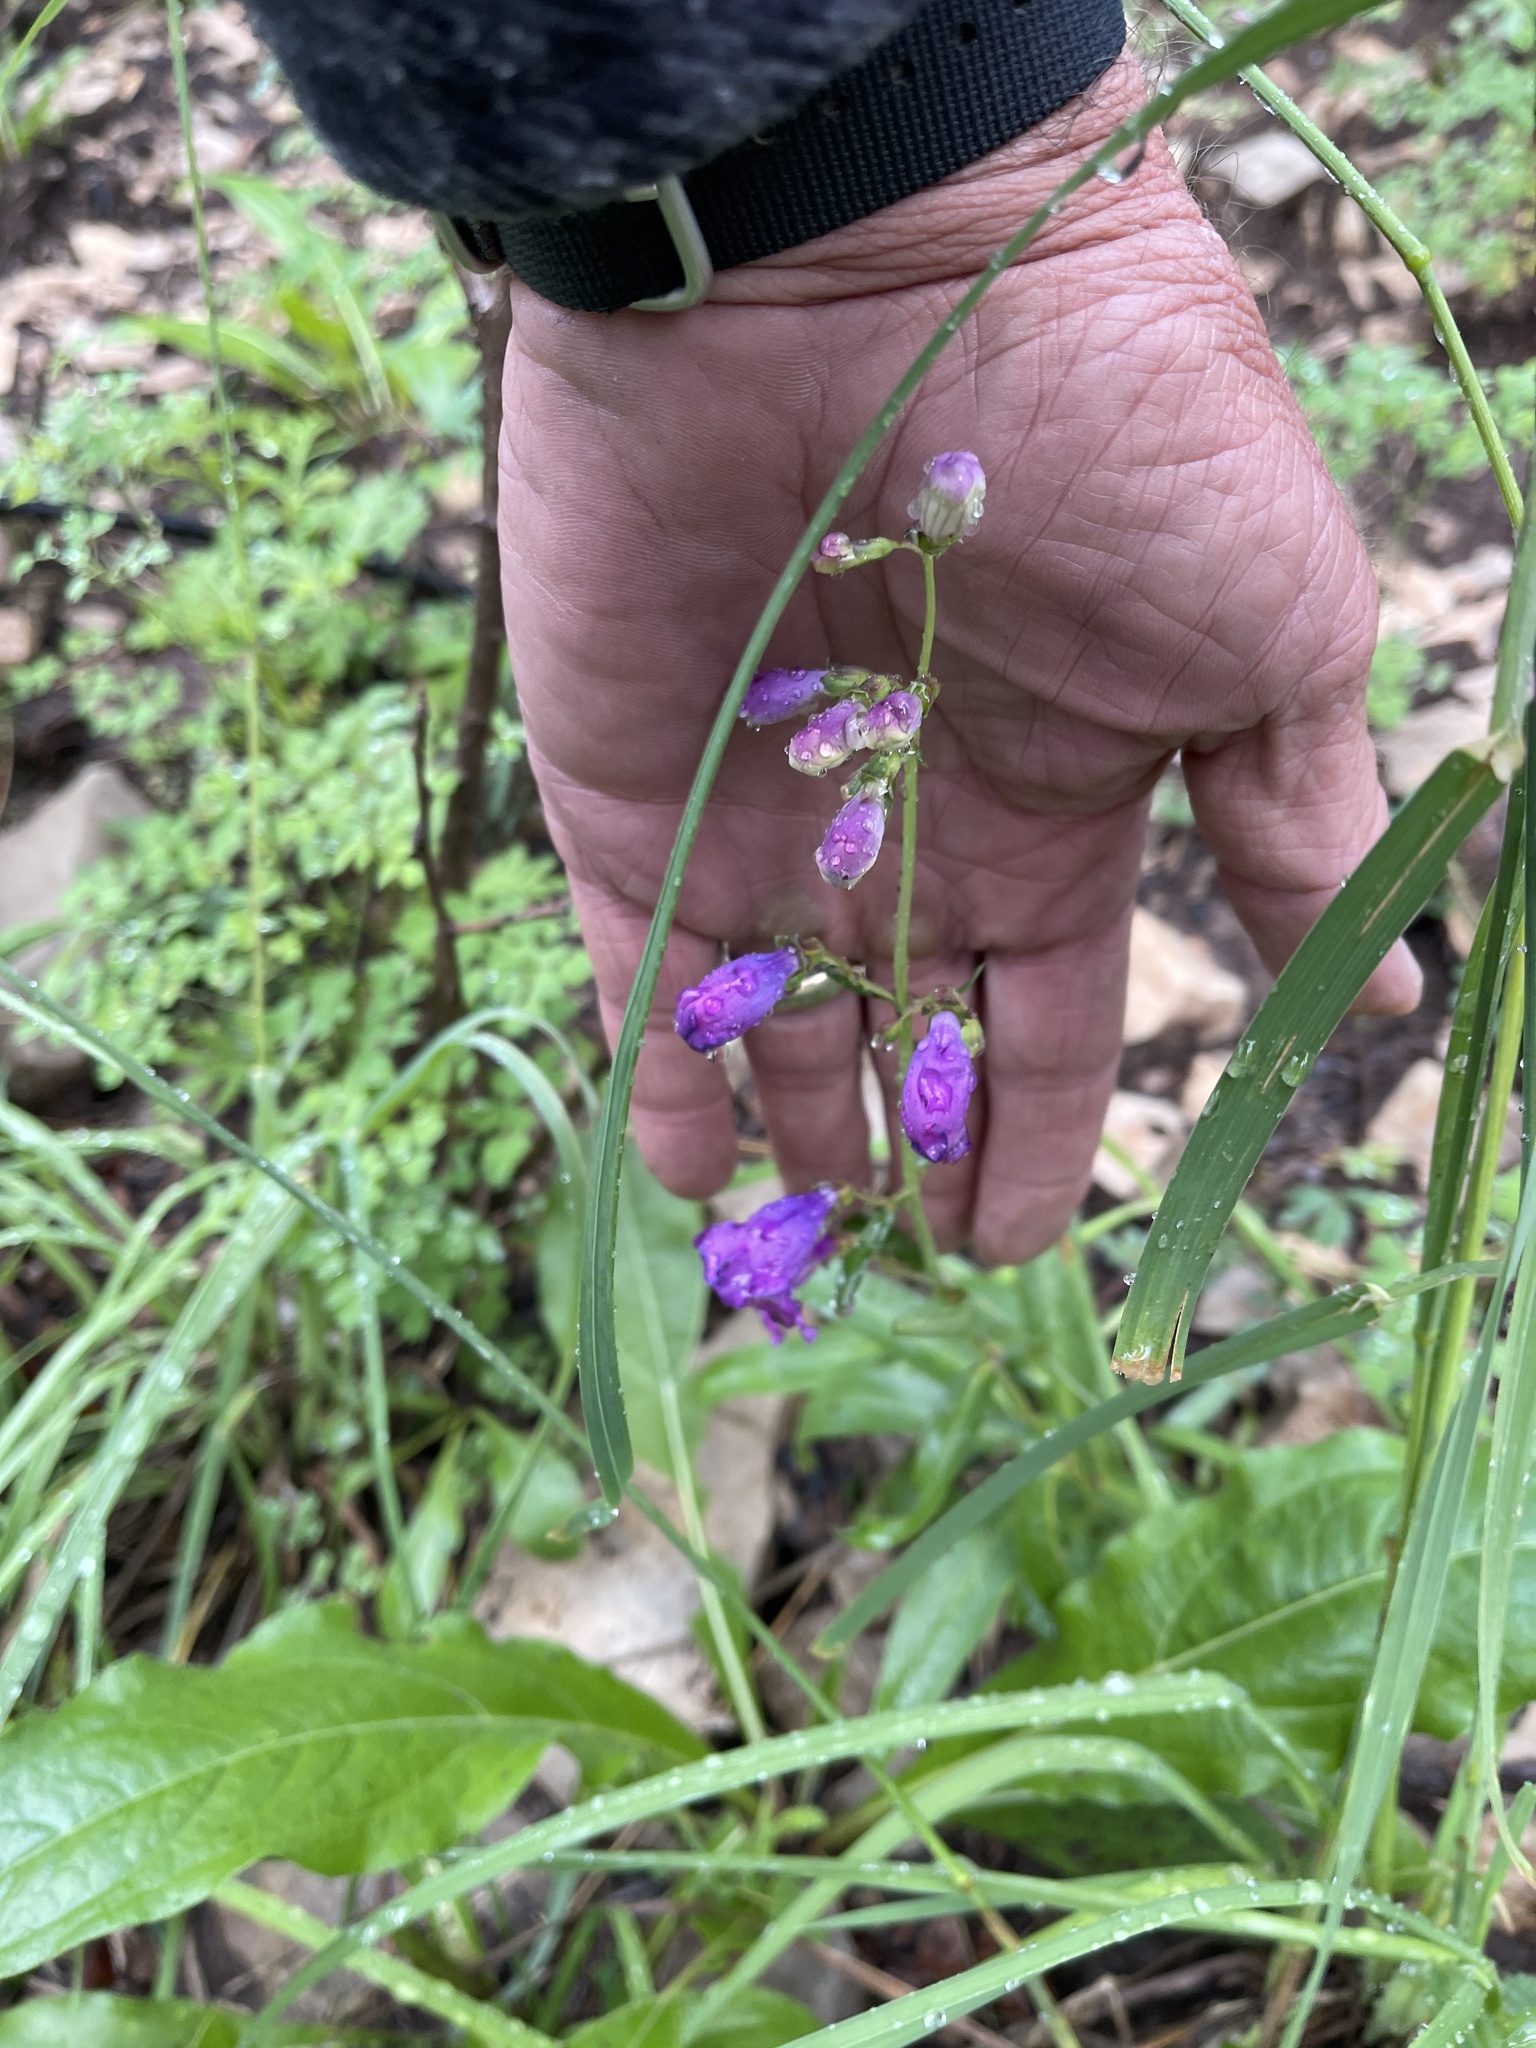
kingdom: Plantae
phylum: Tracheophyta
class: Magnoliopsida
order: Lamiales
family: Plantaginaceae
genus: Penstemon
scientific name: Penstemon neomexicanus
